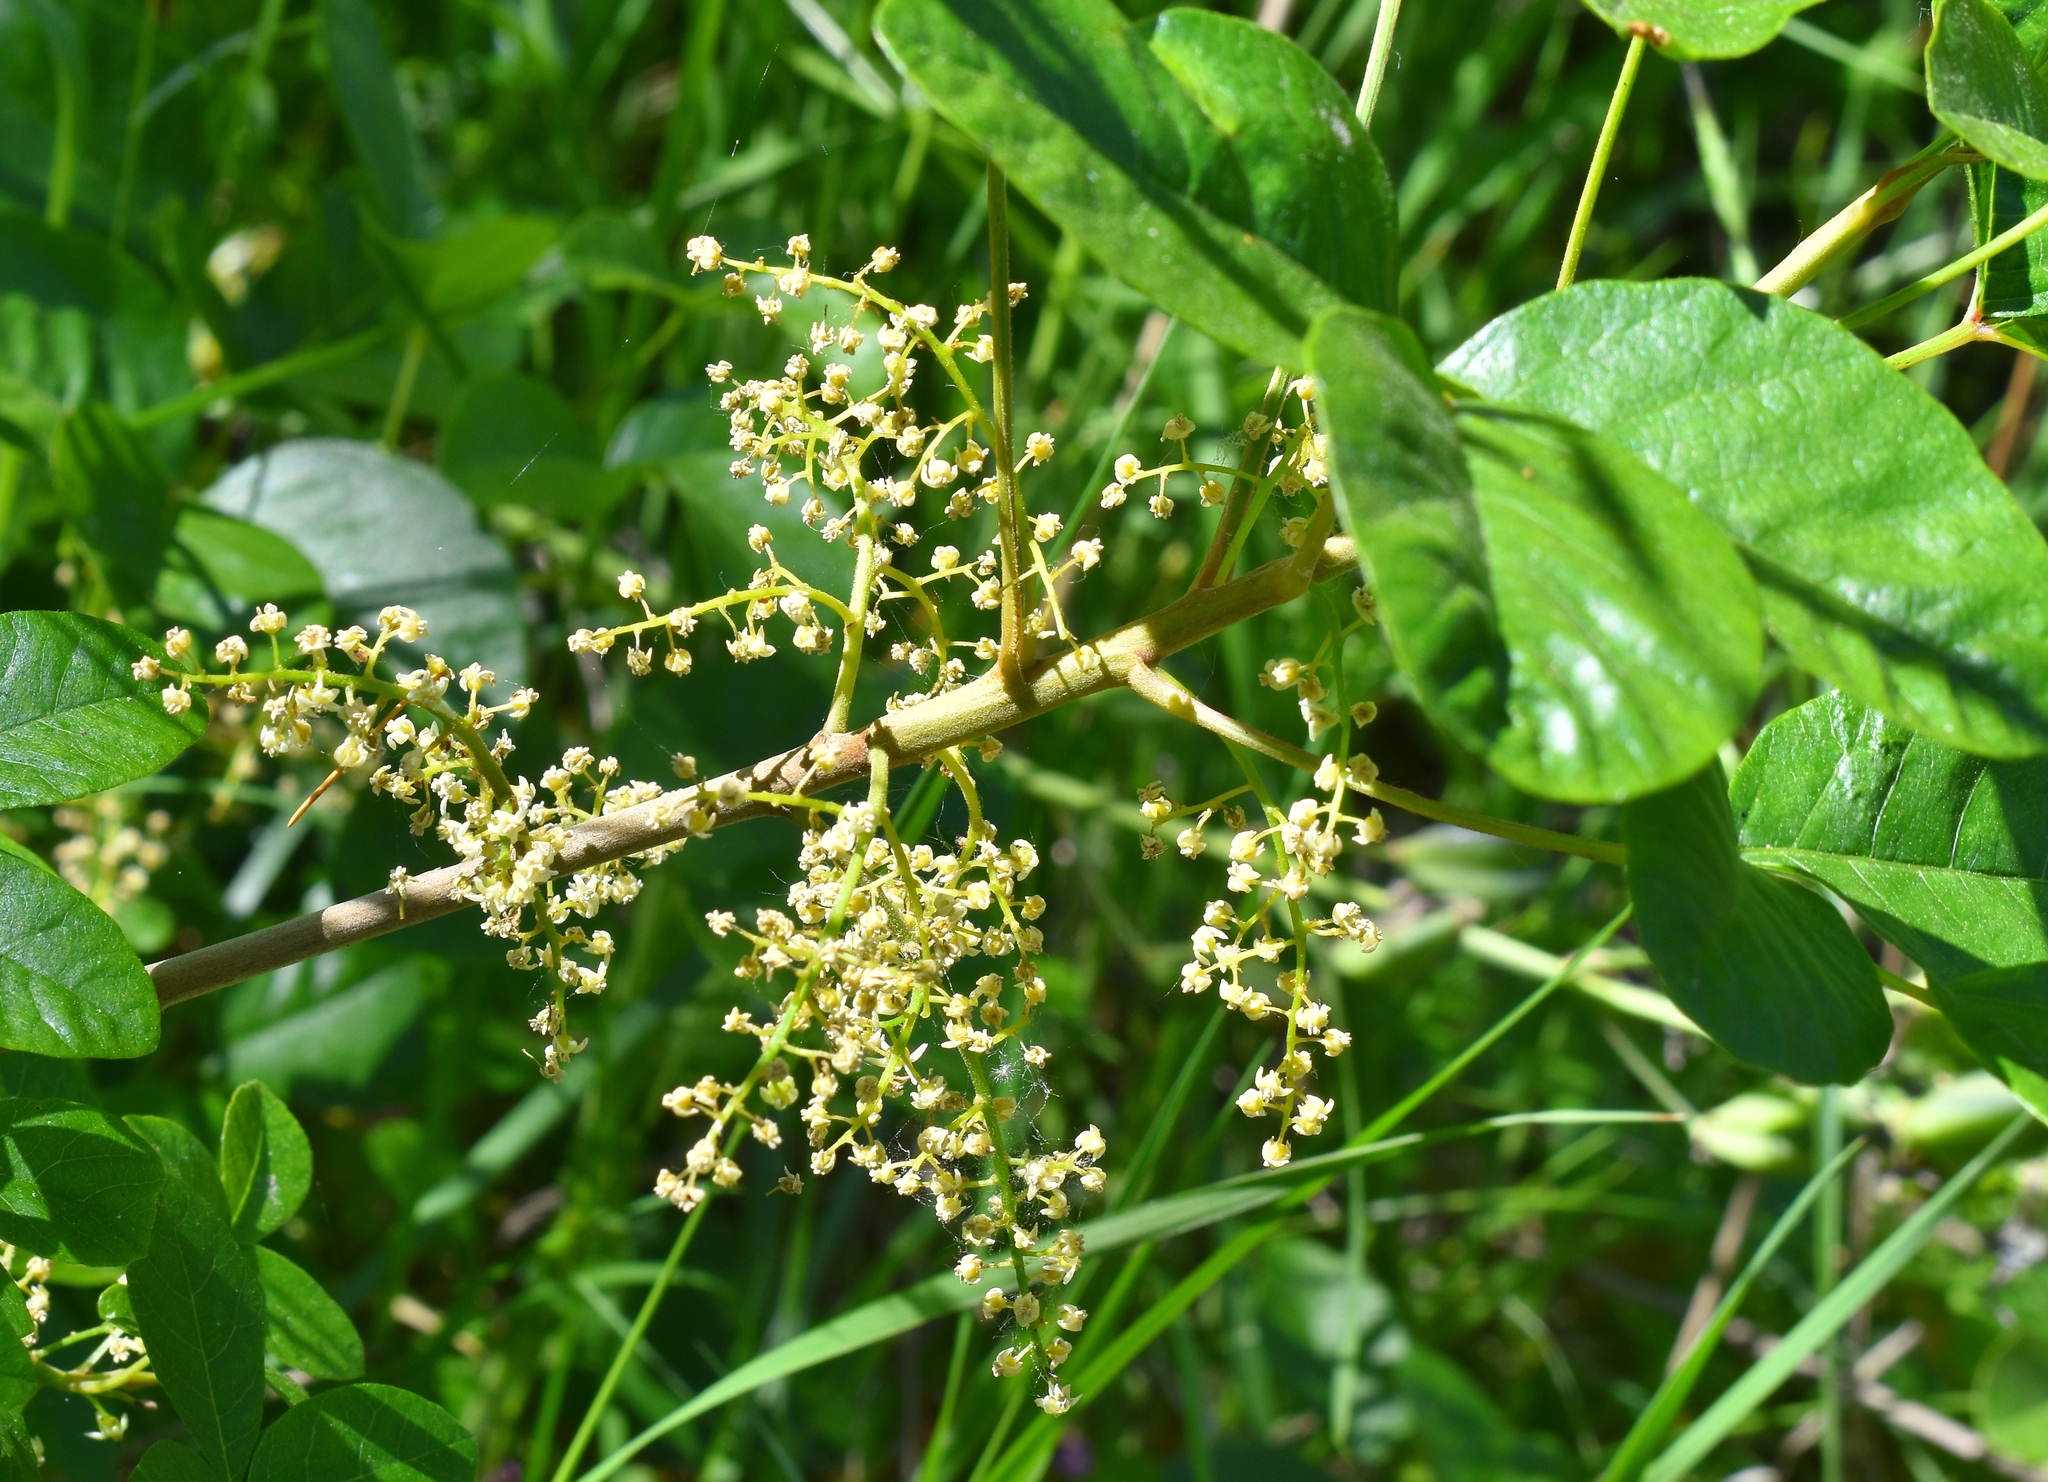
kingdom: Plantae
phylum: Tracheophyta
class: Magnoliopsida
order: Sapindales
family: Anacardiaceae
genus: Toxicodendron
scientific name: Toxicodendron diversilobum
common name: Pacific poison-oak
